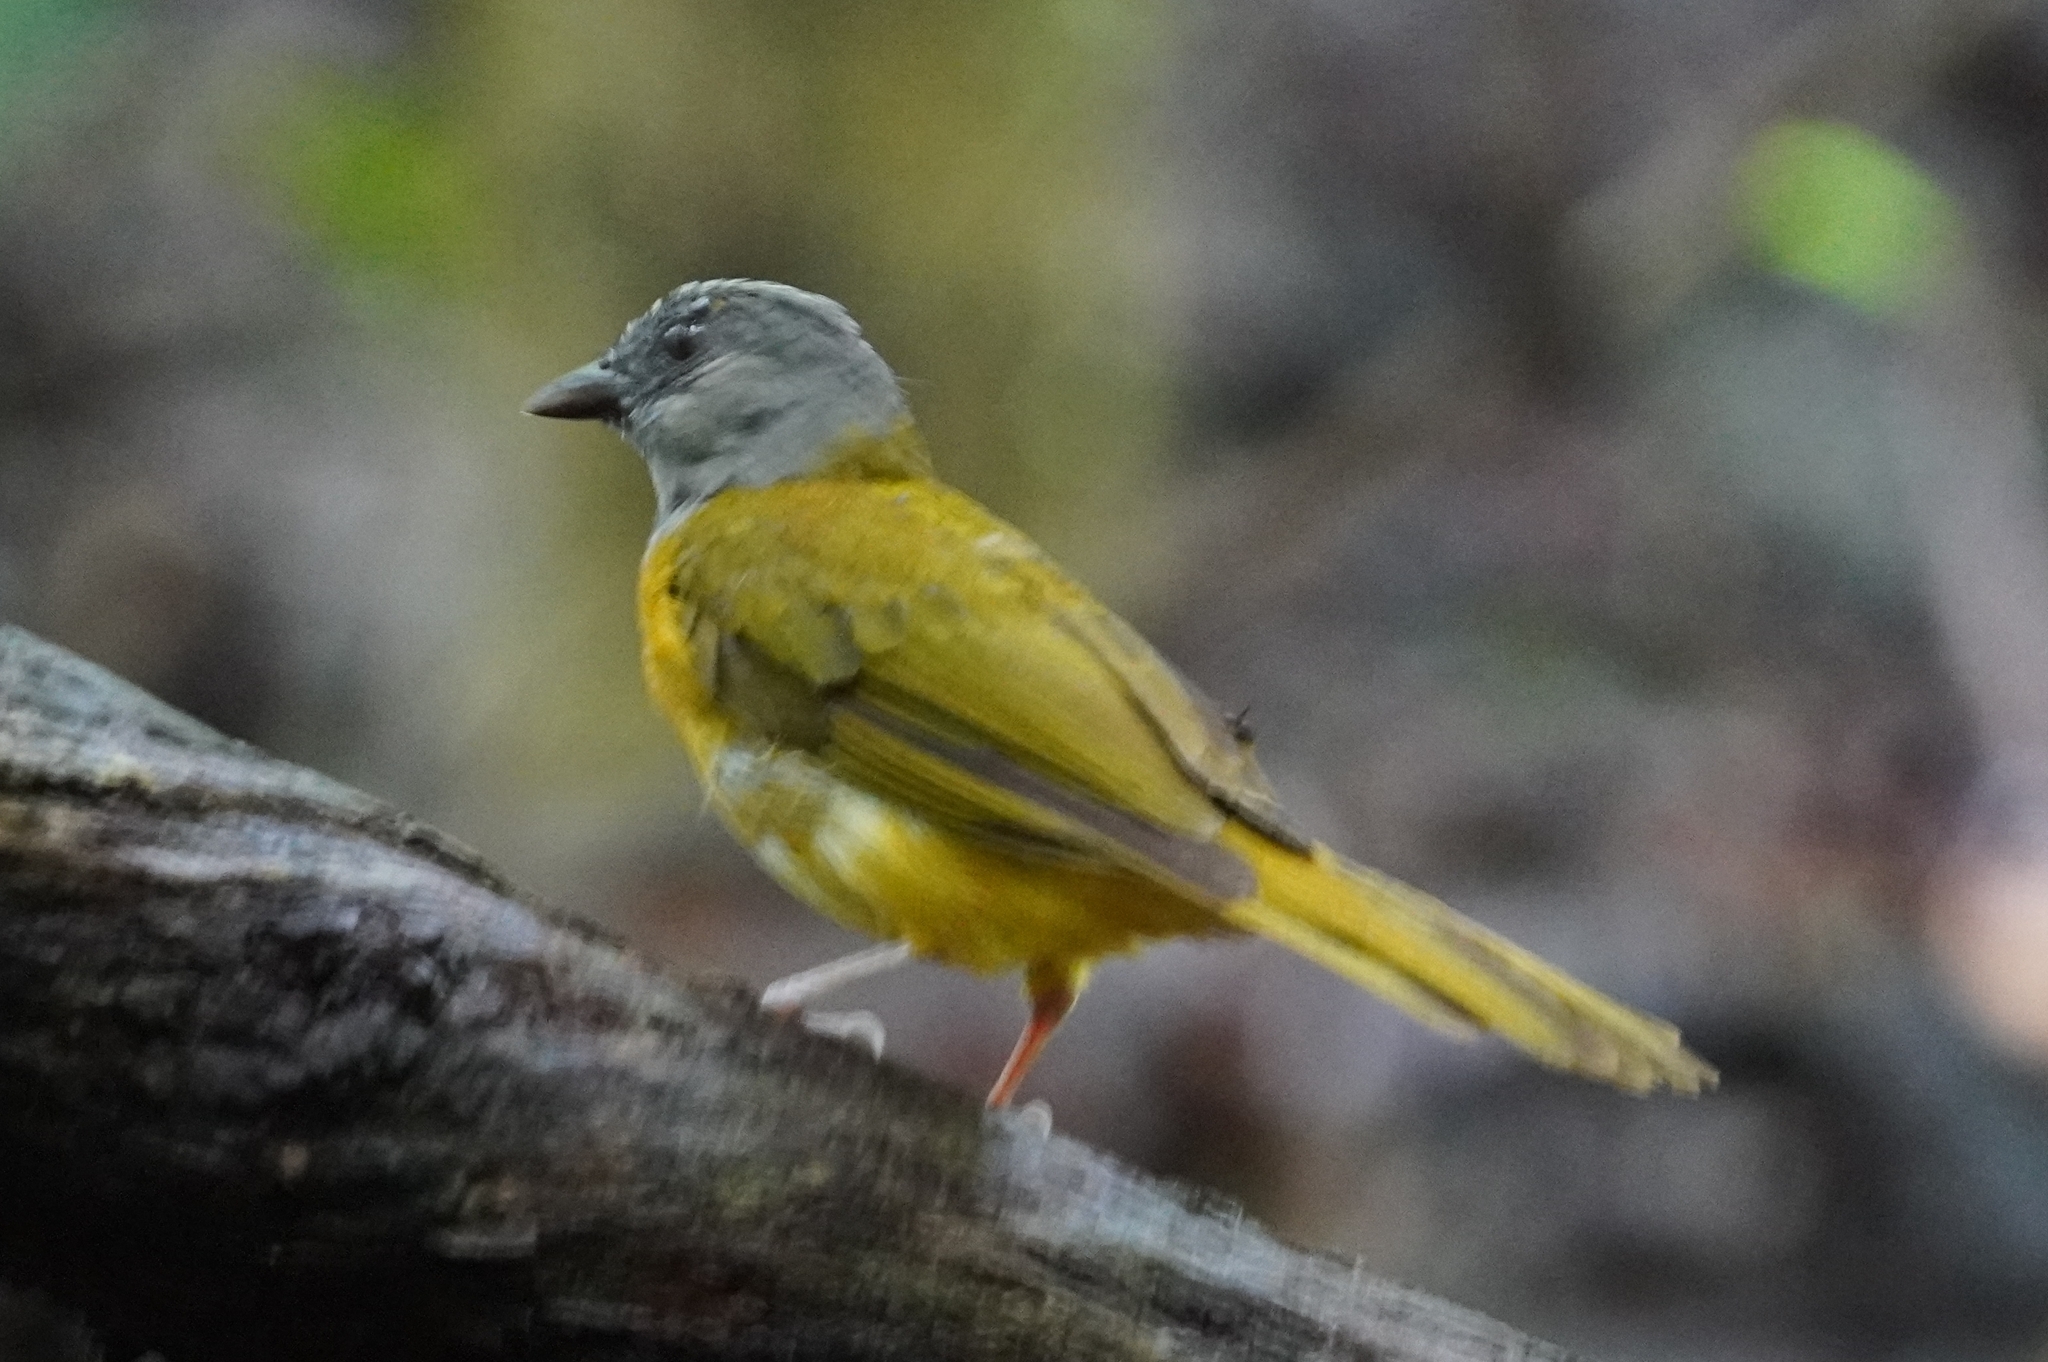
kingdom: Animalia
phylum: Chordata
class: Aves
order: Passeriformes
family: Thraupidae
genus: Eucometis
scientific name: Eucometis penicillata
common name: Grey-headed tanager
